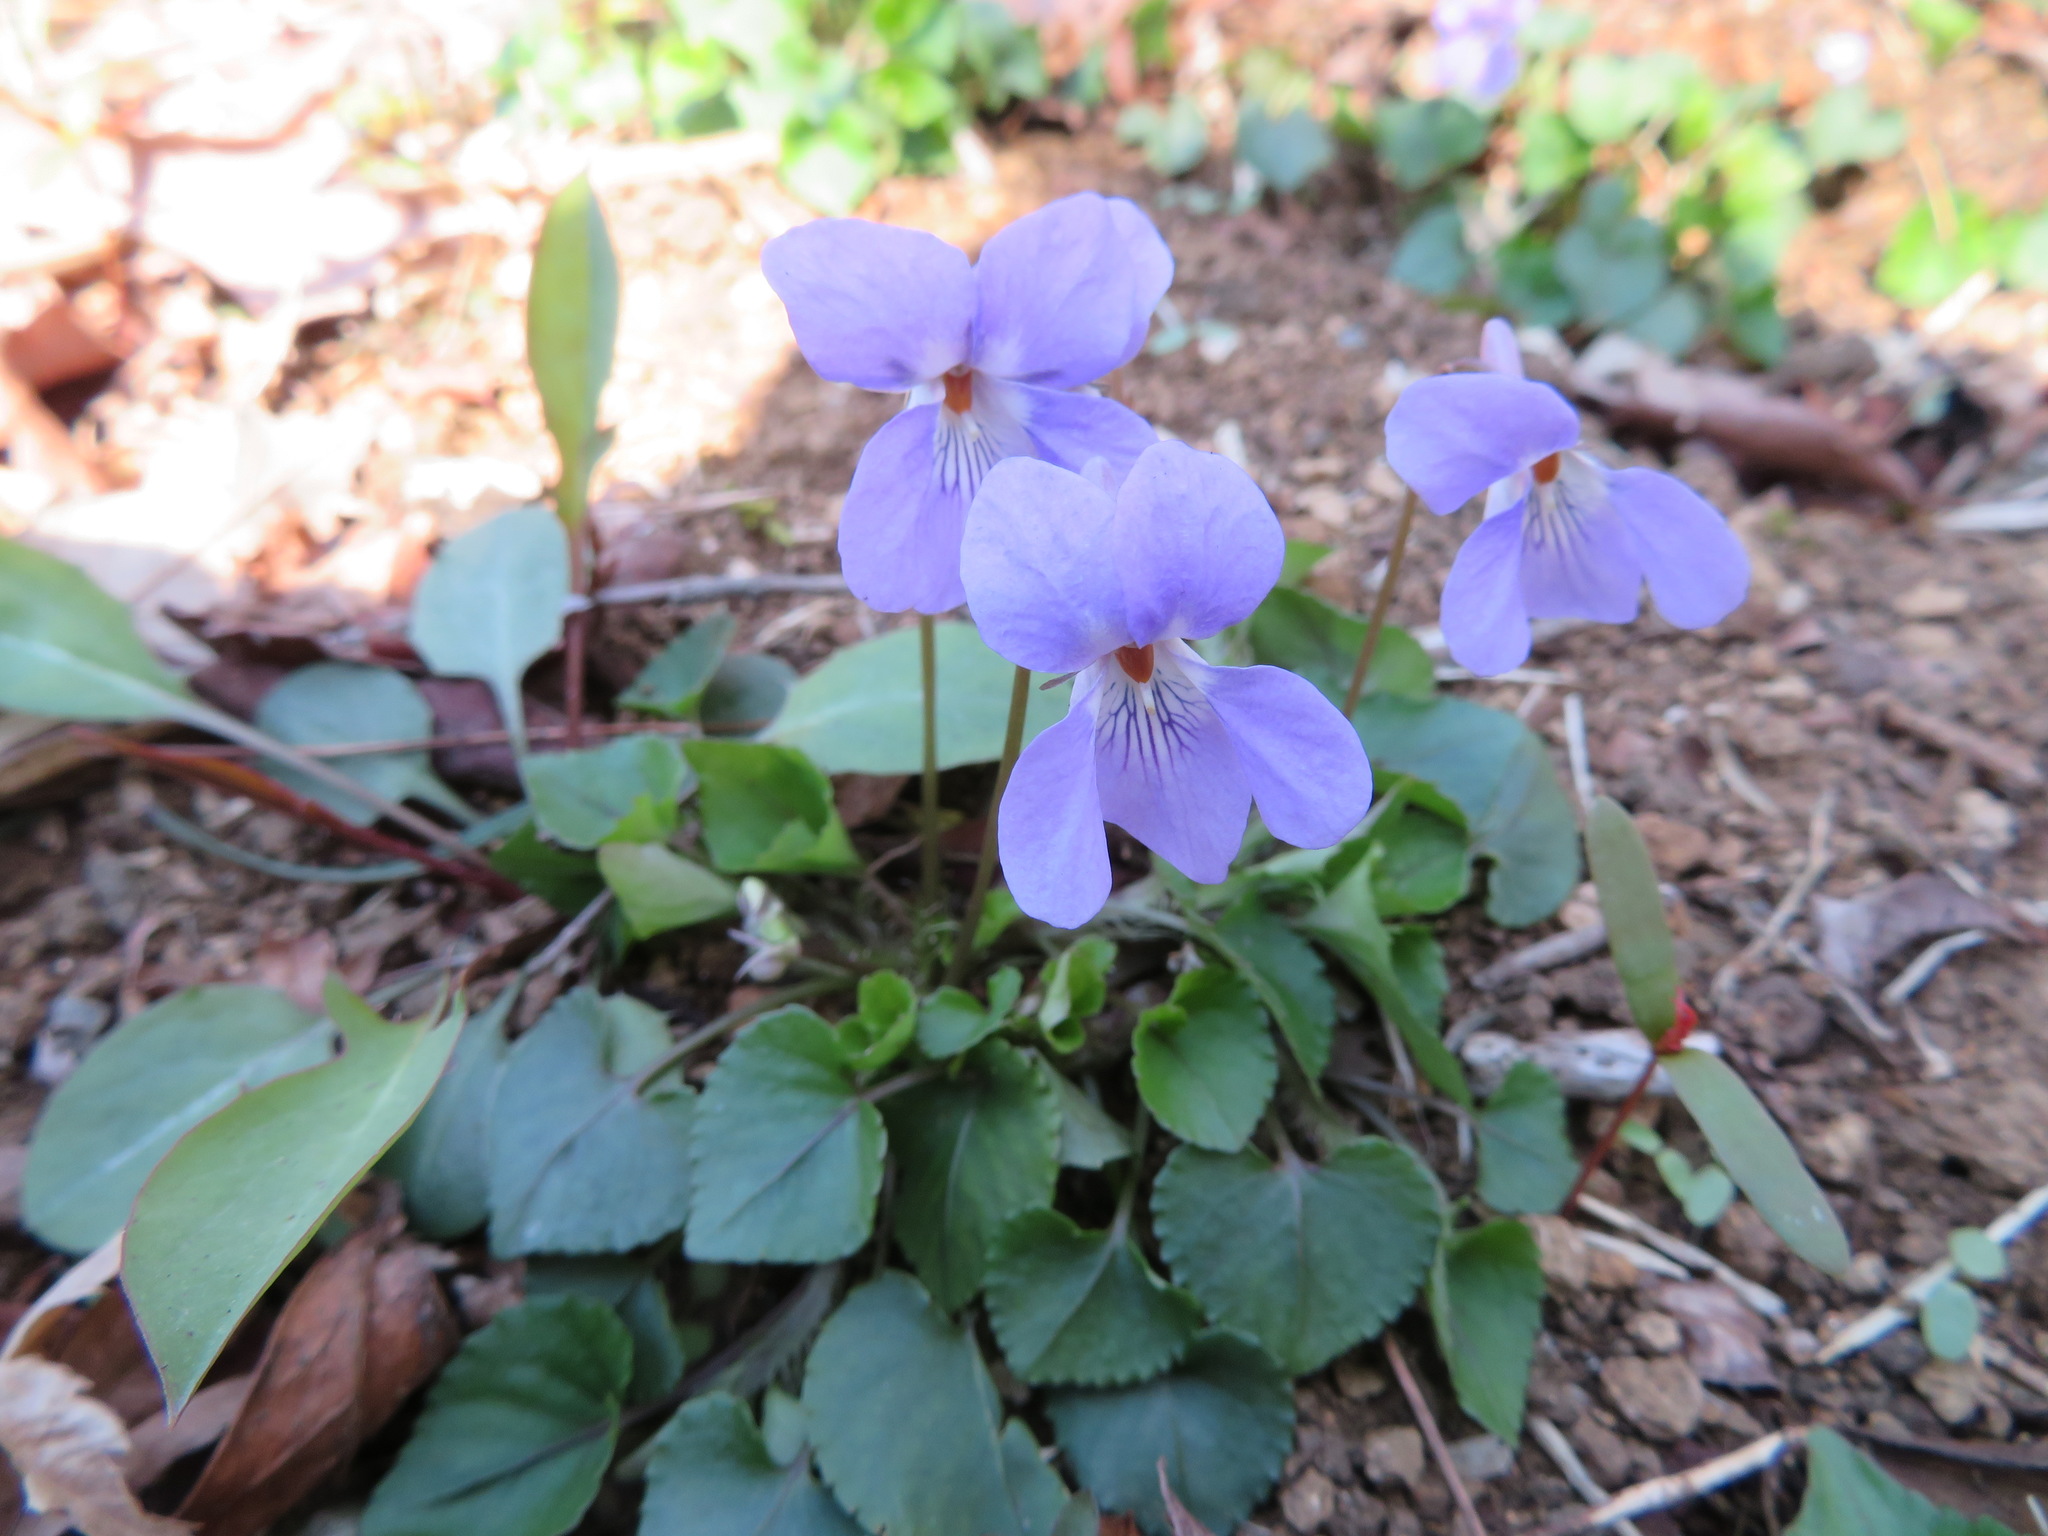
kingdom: Plantae
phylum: Tracheophyta
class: Magnoliopsida
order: Malpighiales
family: Violaceae
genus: Viola
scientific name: Viola grypoceras
